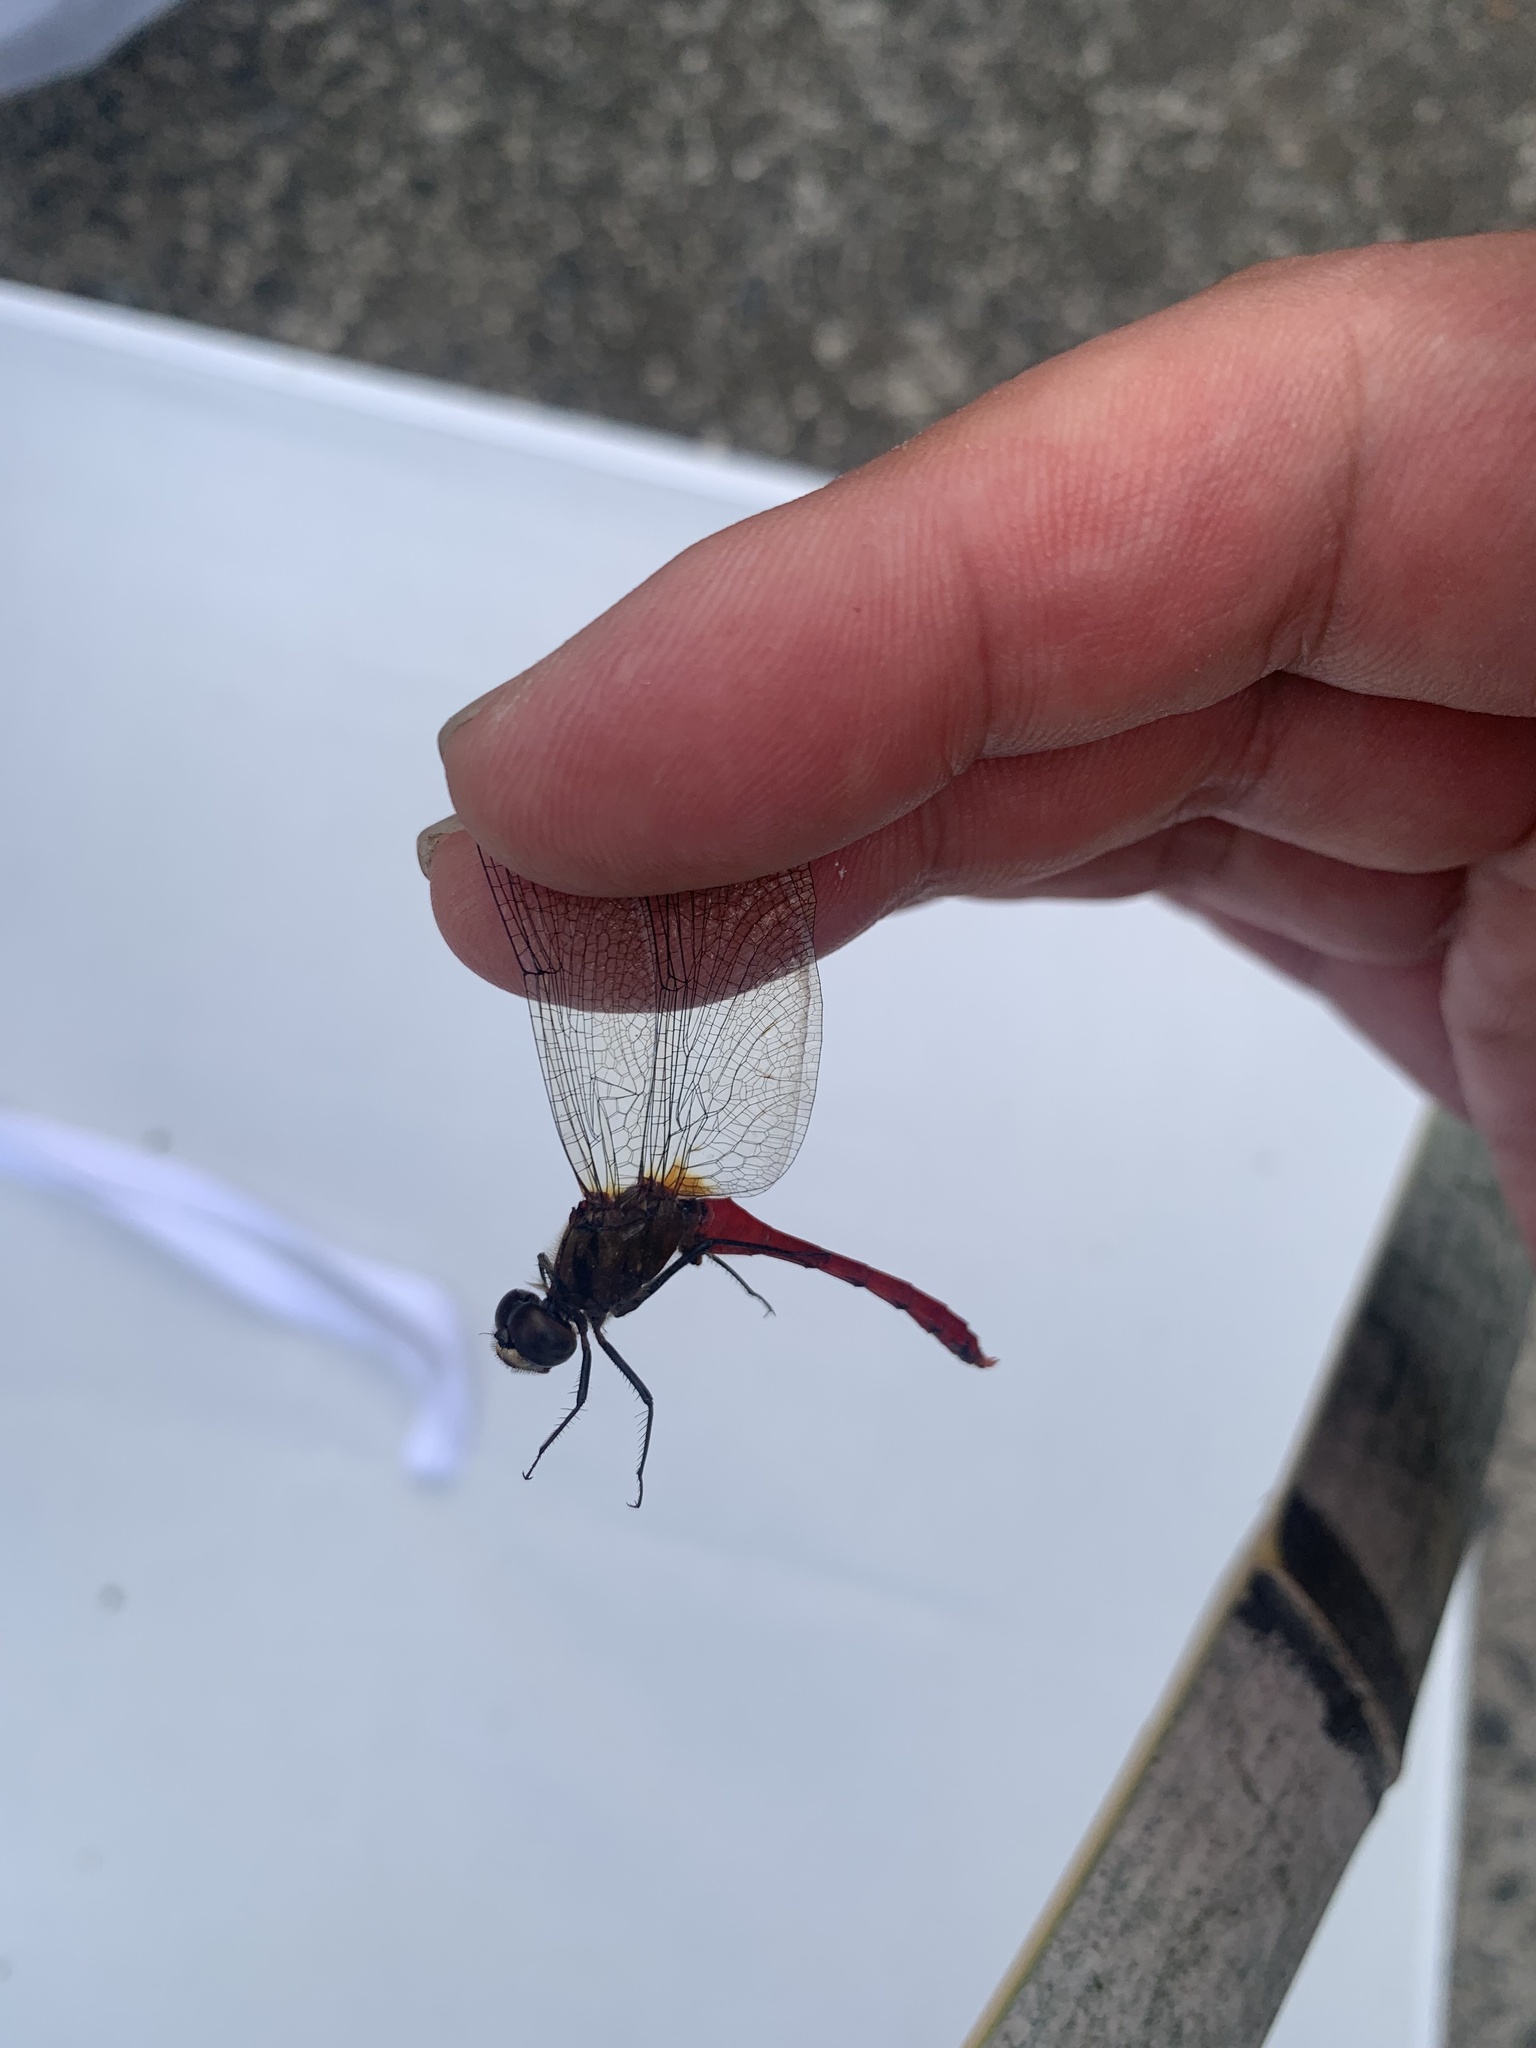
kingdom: Animalia
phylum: Arthropoda
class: Insecta
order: Odonata
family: Libellulidae
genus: Sympetrum
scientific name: Sympetrum eroticum
